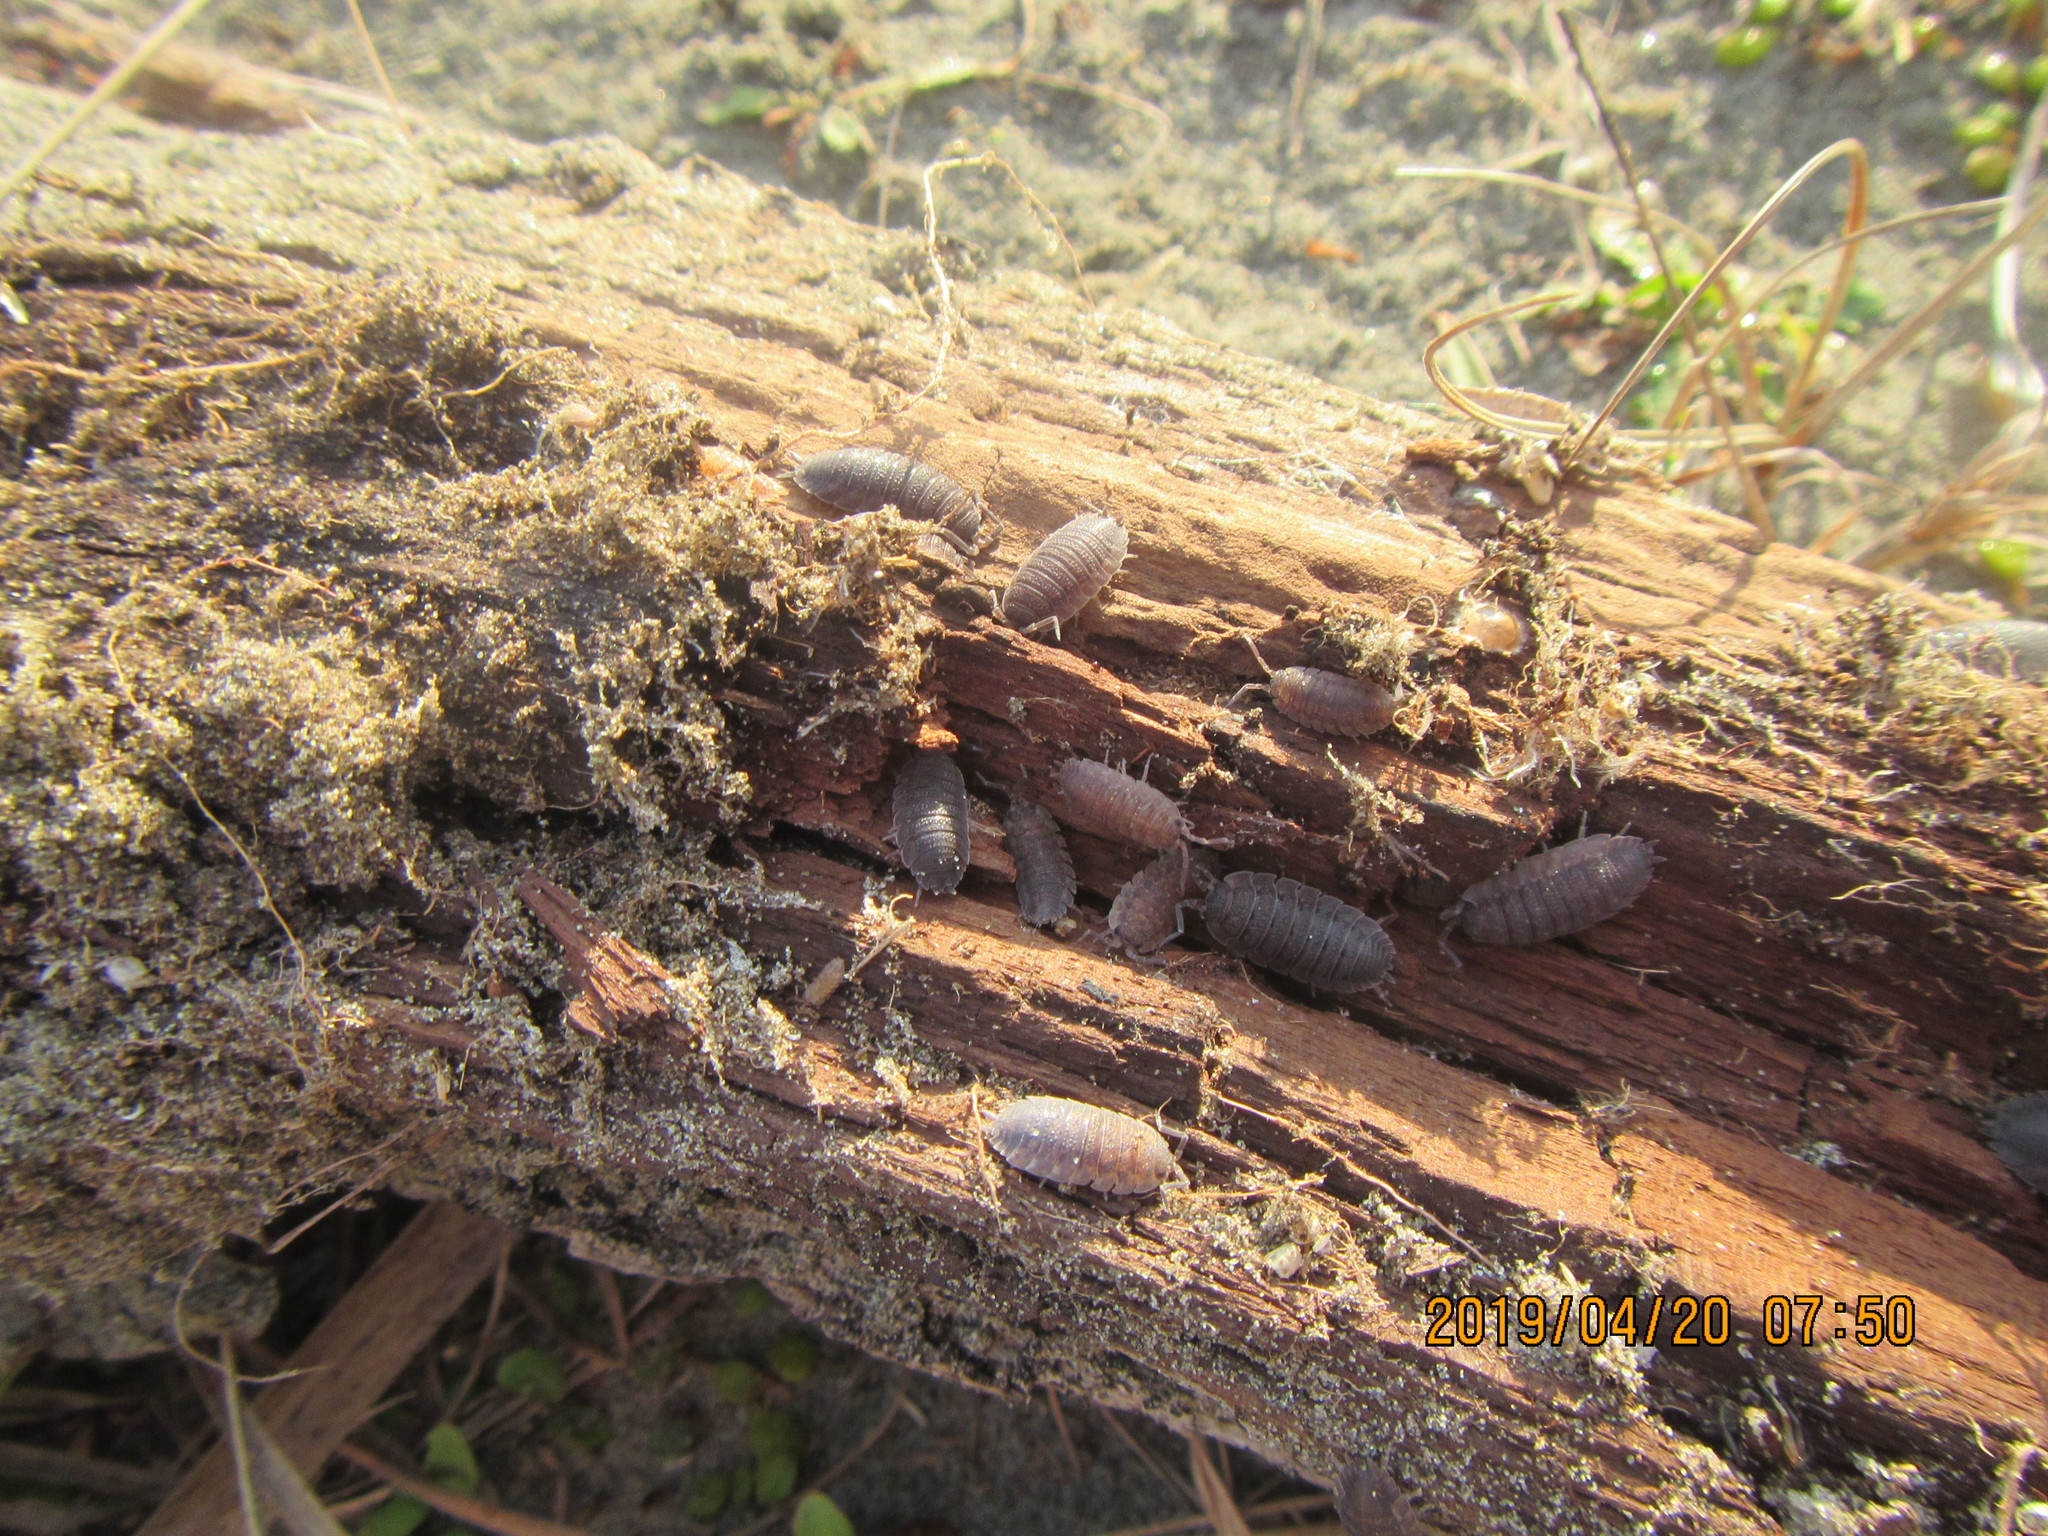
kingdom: Animalia
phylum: Arthropoda
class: Malacostraca
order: Isopoda
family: Porcellionidae
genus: Porcellio
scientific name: Porcellio scaber
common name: Common rough woodlouse
